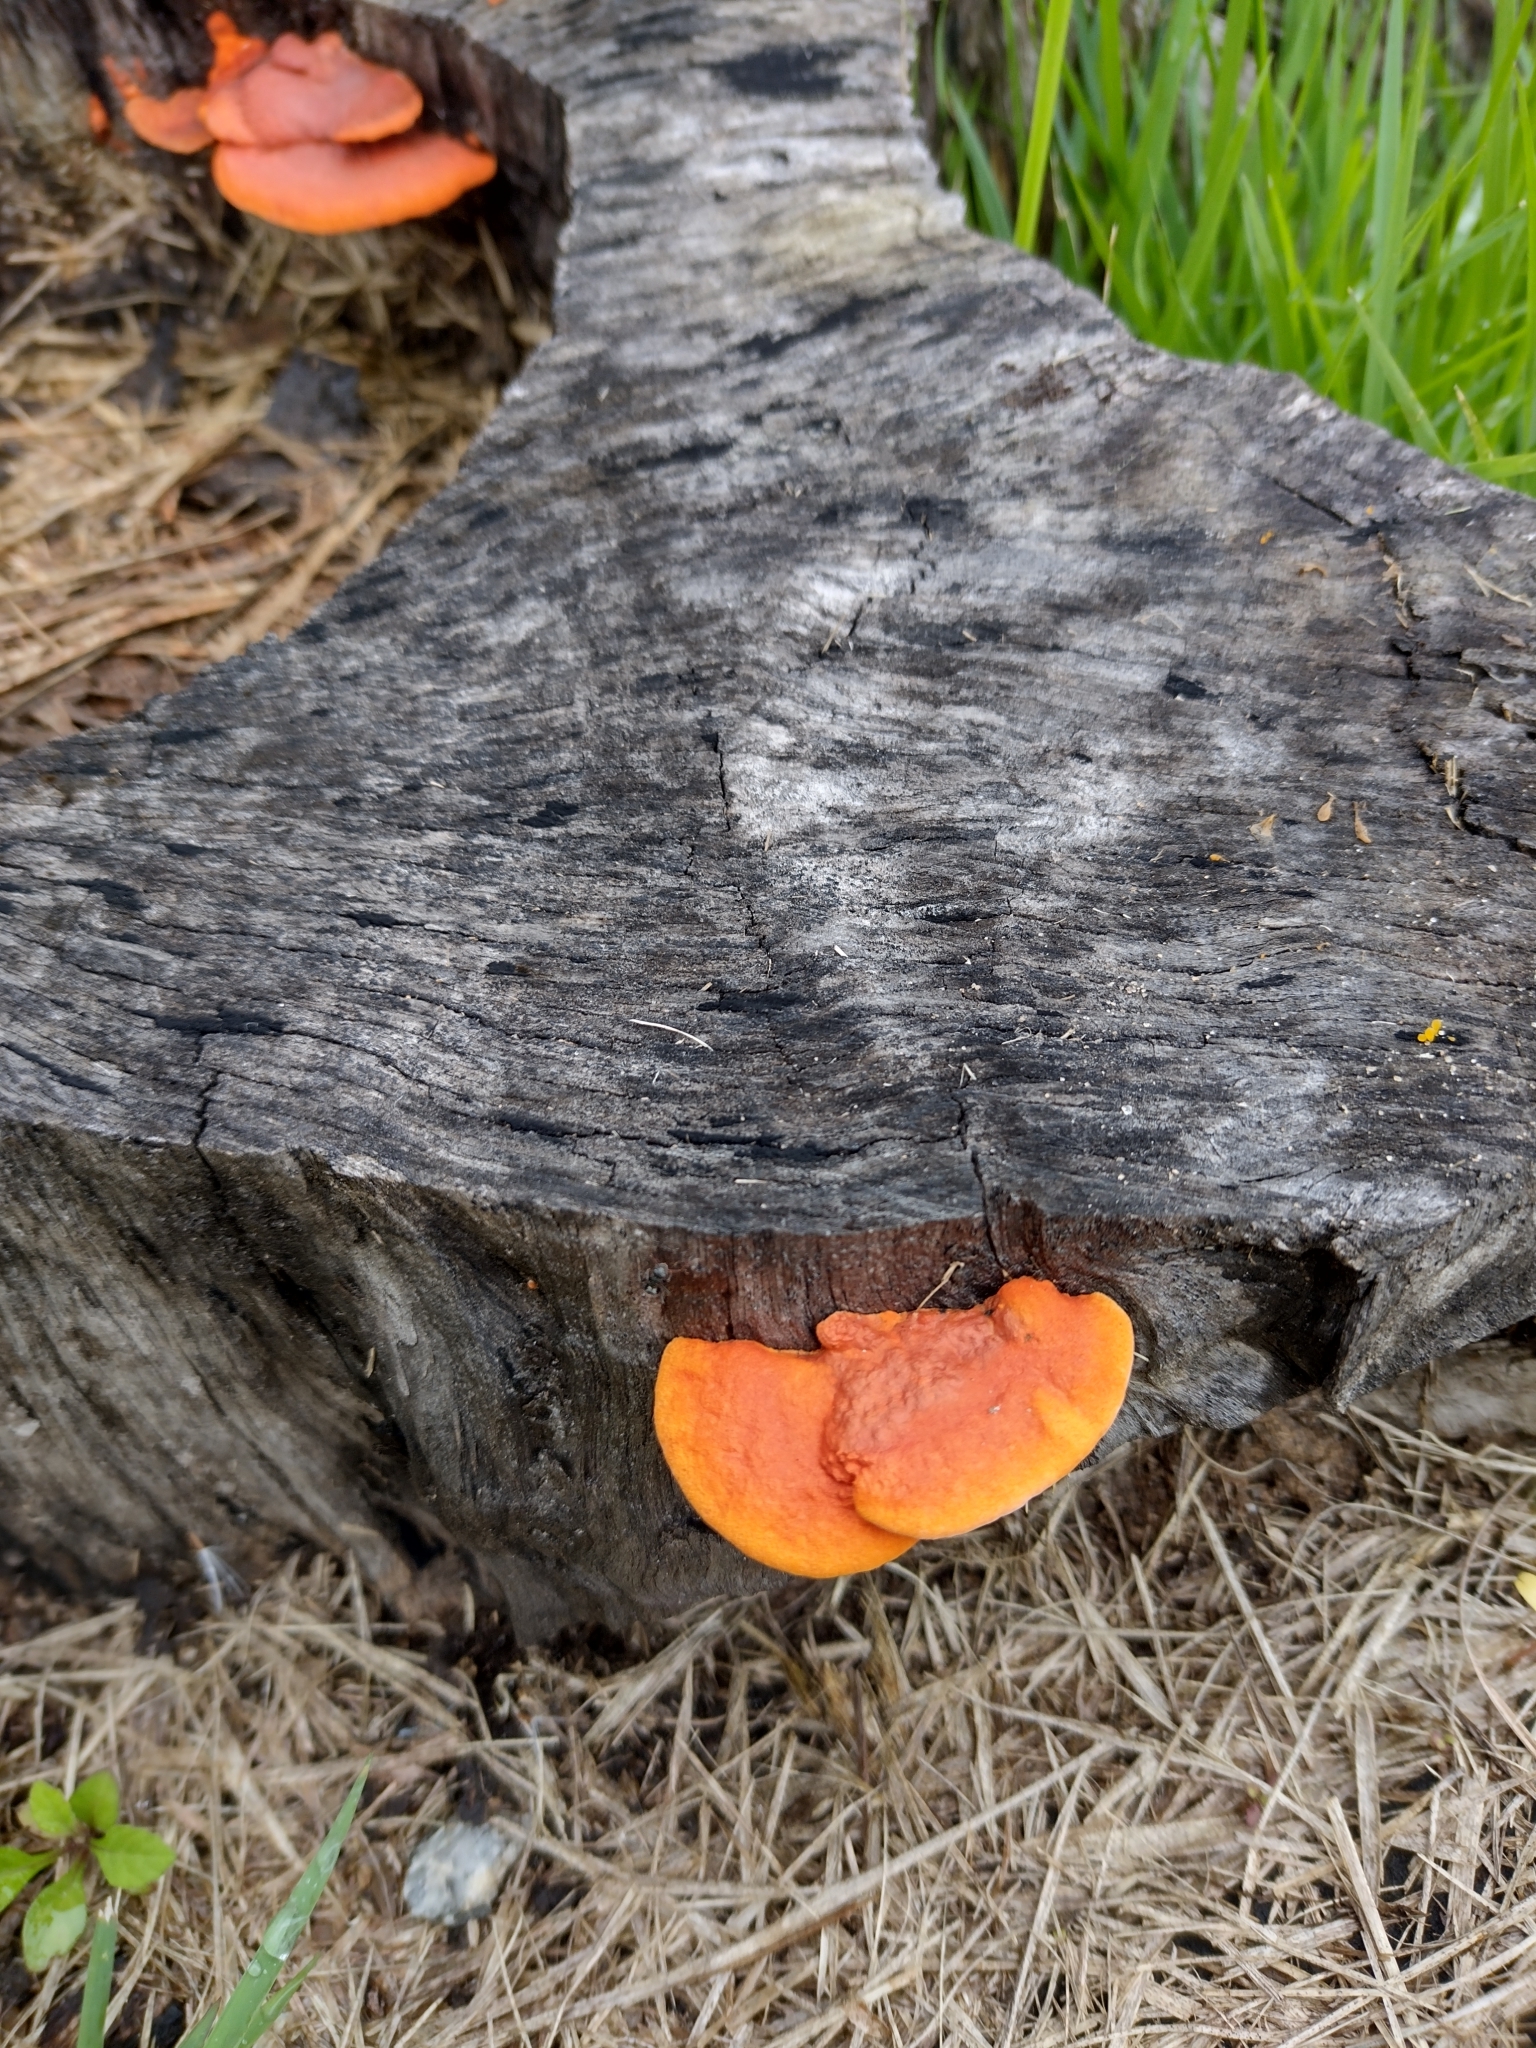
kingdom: Fungi
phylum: Basidiomycota
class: Agaricomycetes
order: Polyporales
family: Polyporaceae
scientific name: Polyporaceae
